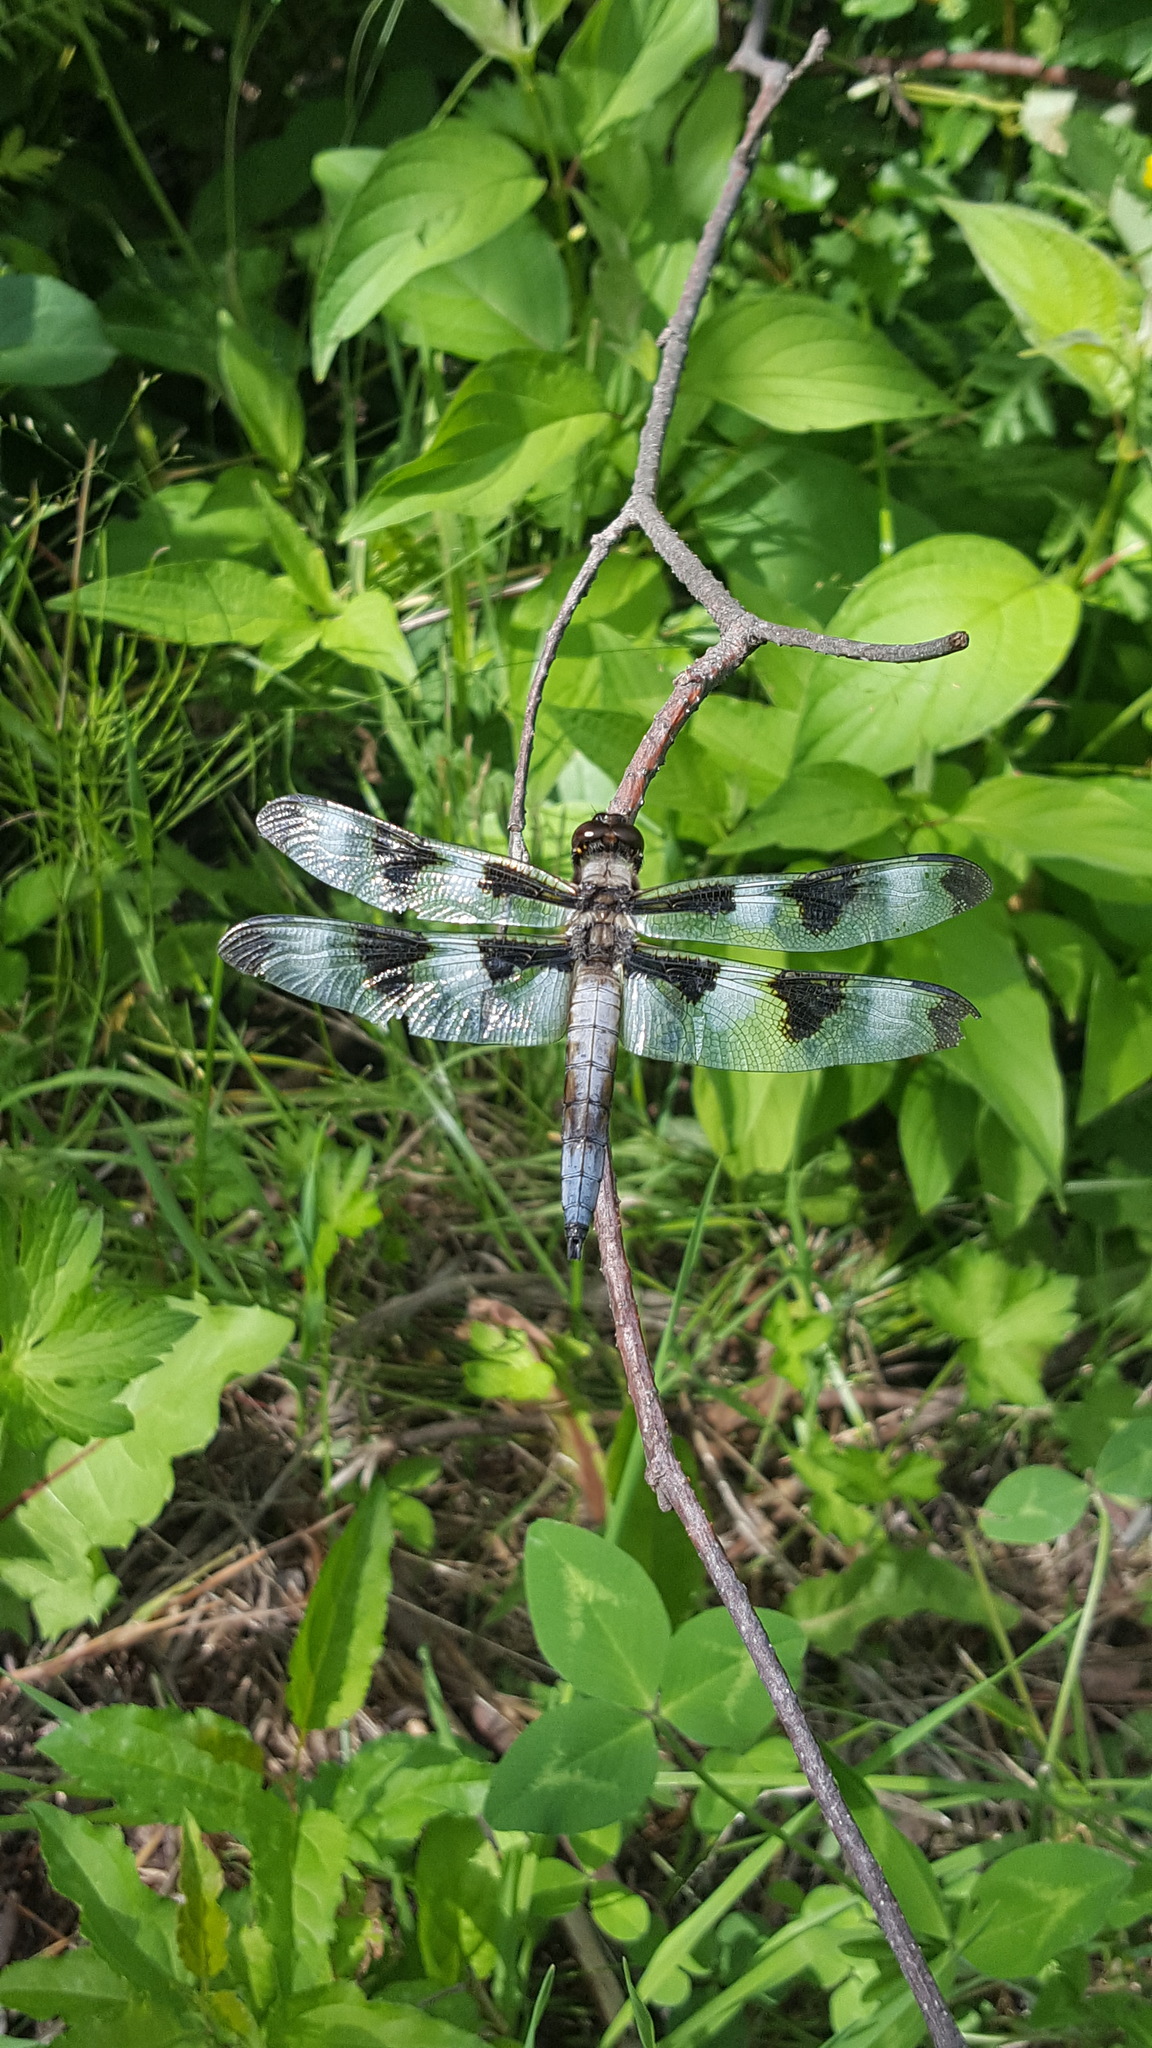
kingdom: Animalia
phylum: Arthropoda
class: Insecta
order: Odonata
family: Libellulidae
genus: Libellula
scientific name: Libellula pulchella
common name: Twelve-spotted skimmer
